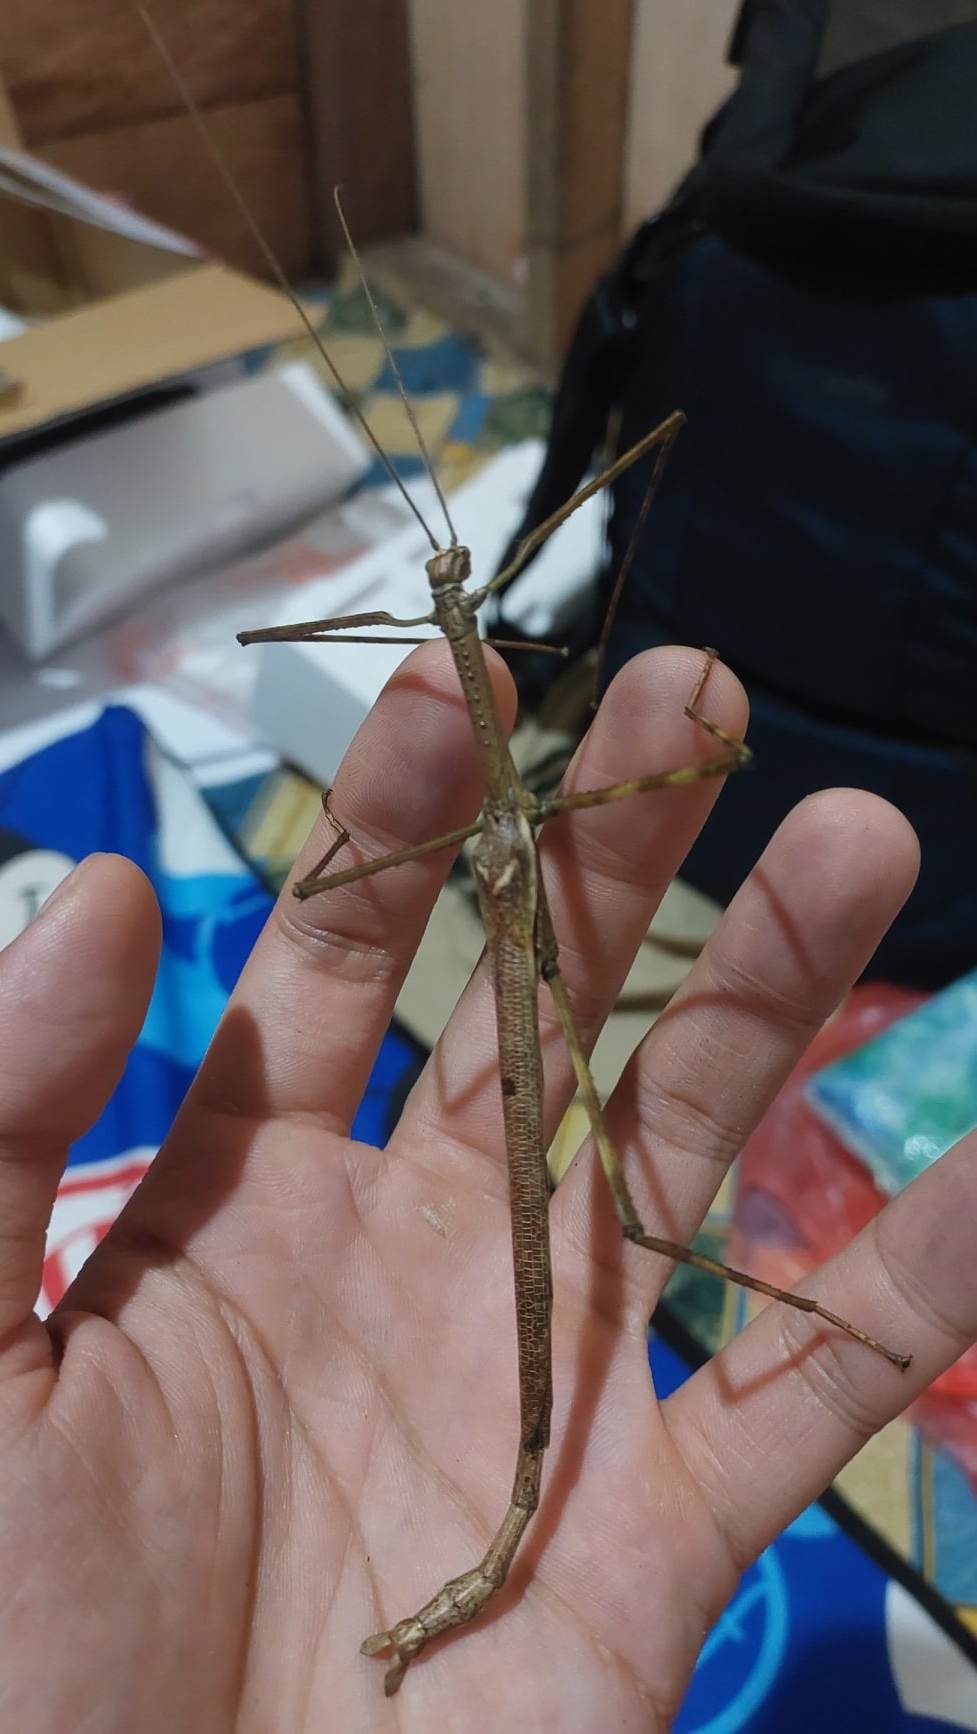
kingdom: Animalia
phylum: Arthropoda
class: Insecta
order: Phasmida
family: Phasmatidae
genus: Anchiale
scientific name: Anchiale maculata
